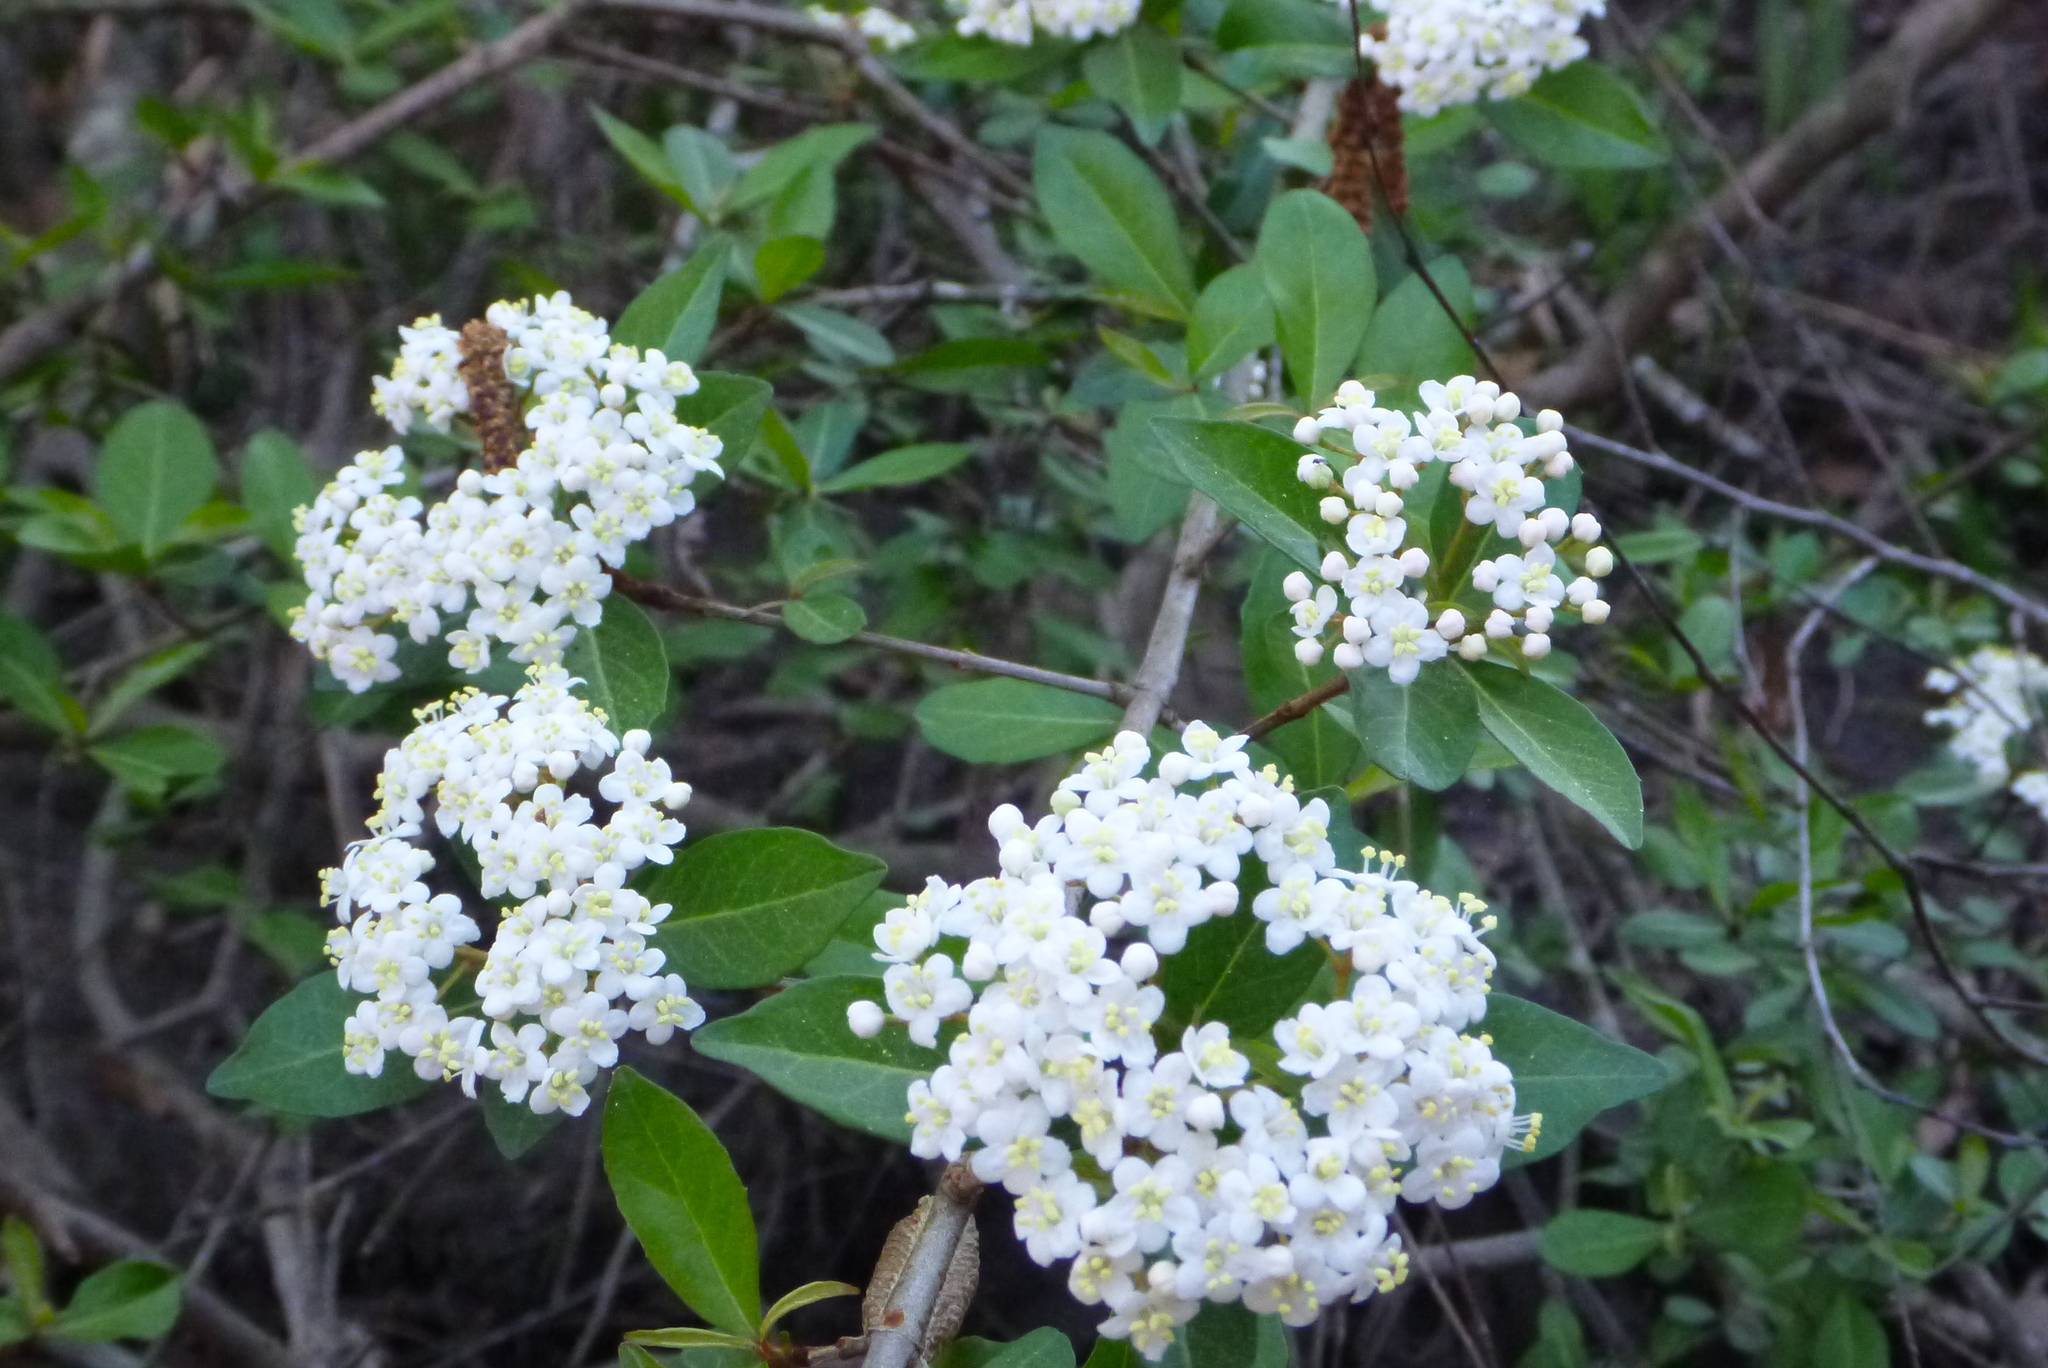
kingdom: Plantae
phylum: Tracheophyta
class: Magnoliopsida
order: Dipsacales
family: Viburnaceae
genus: Viburnum
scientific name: Viburnum obovatum
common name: Walter's viburnum
